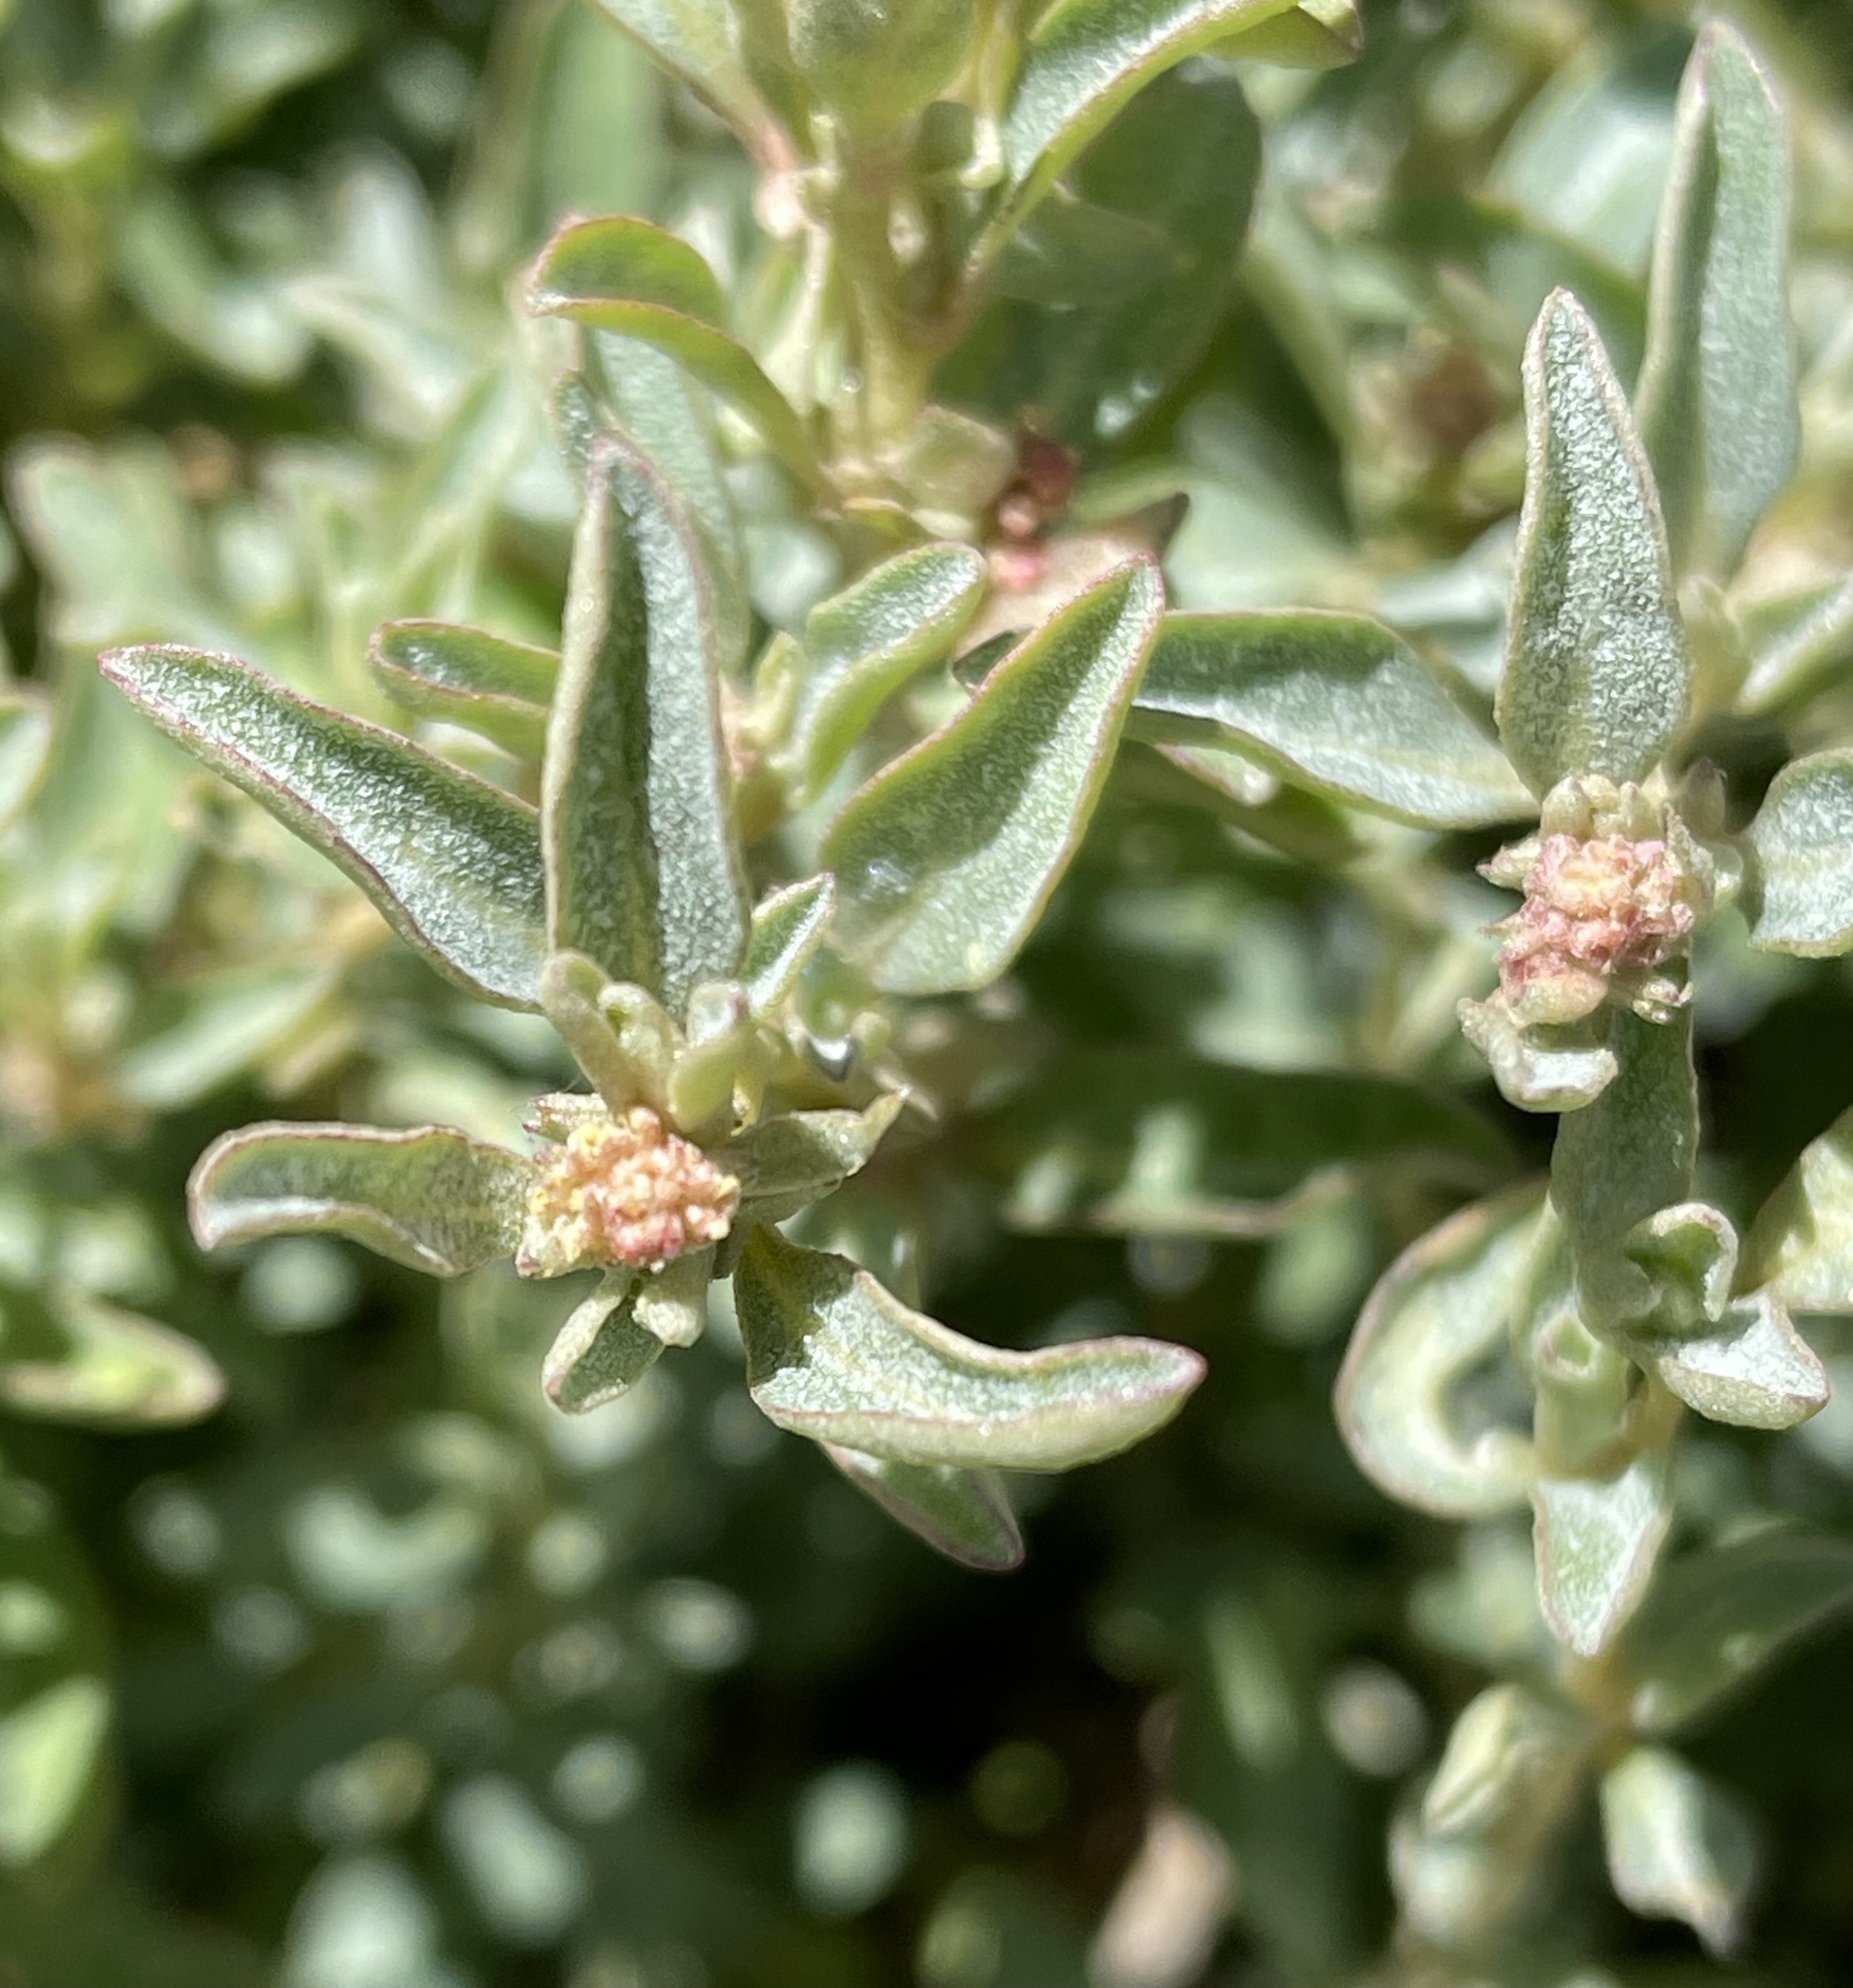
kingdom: Plantae
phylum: Tracheophyta
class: Magnoliopsida
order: Caryophyllales
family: Amaranthaceae
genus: Atriplex
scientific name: Atriplex semibaccata
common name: Australian saltbush
